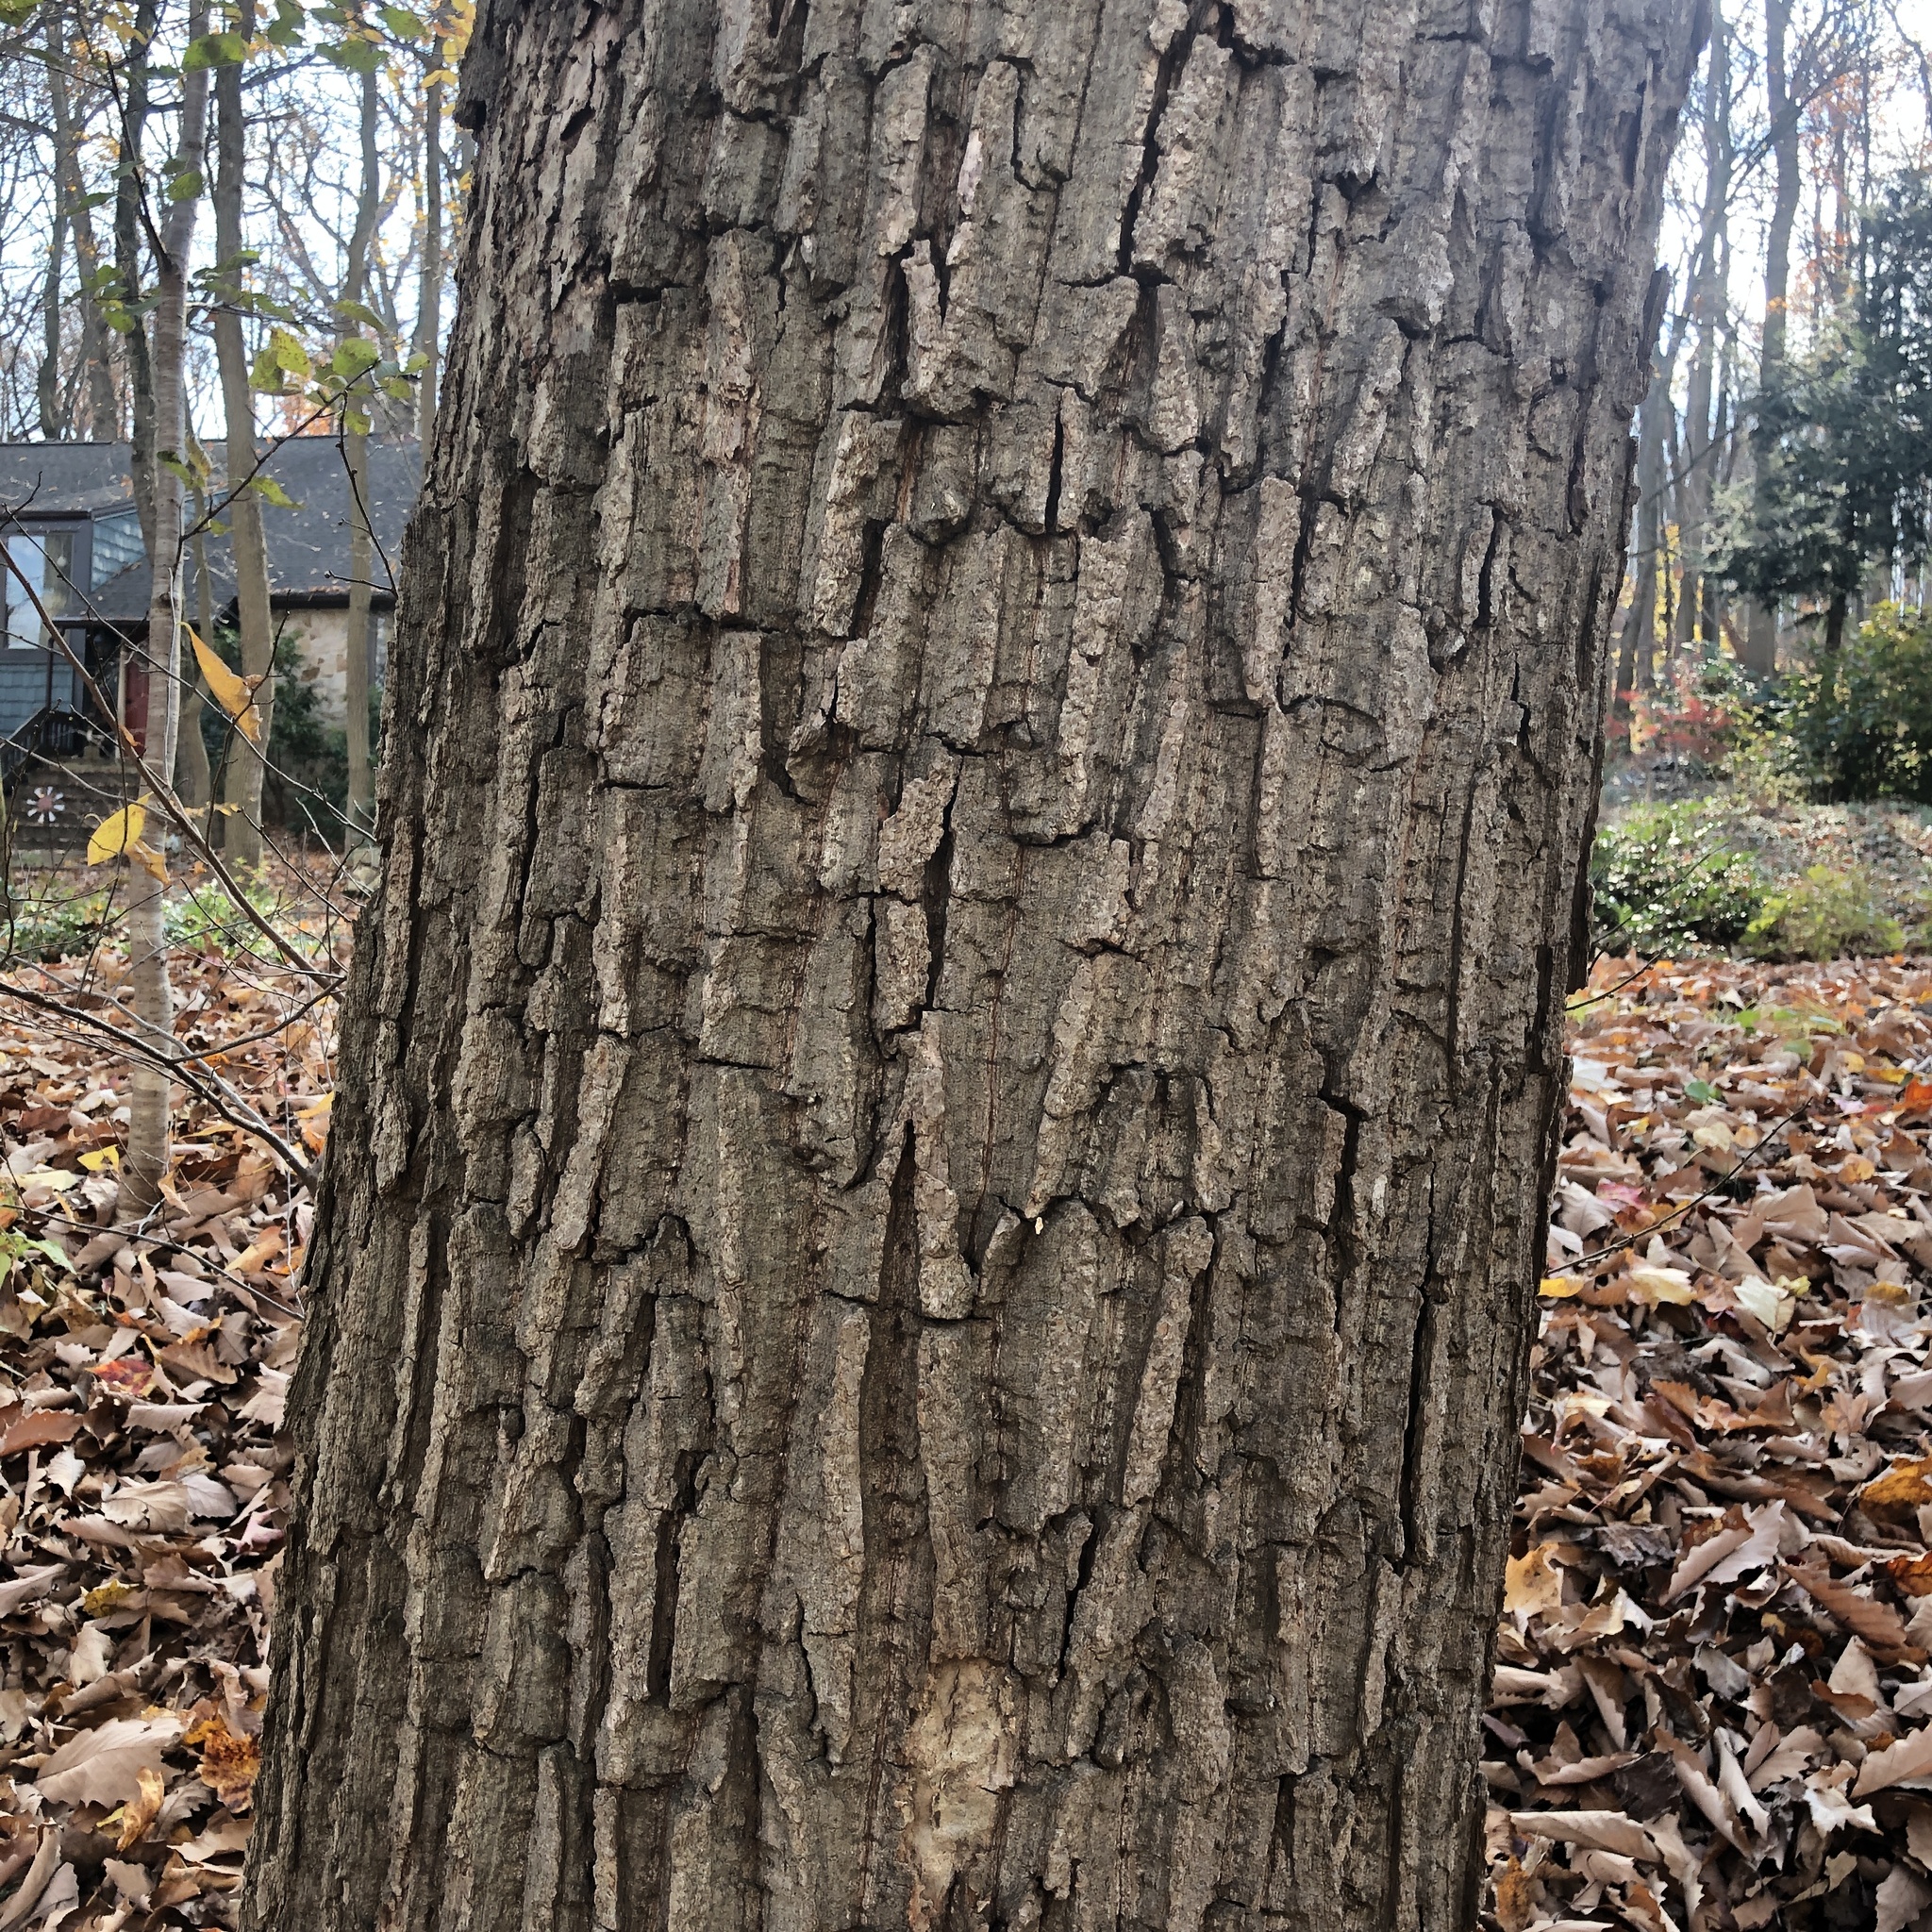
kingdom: Plantae
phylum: Tracheophyta
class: Magnoliopsida
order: Fagales
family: Fagaceae
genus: Quercus
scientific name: Quercus montana
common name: Chestnut oak
